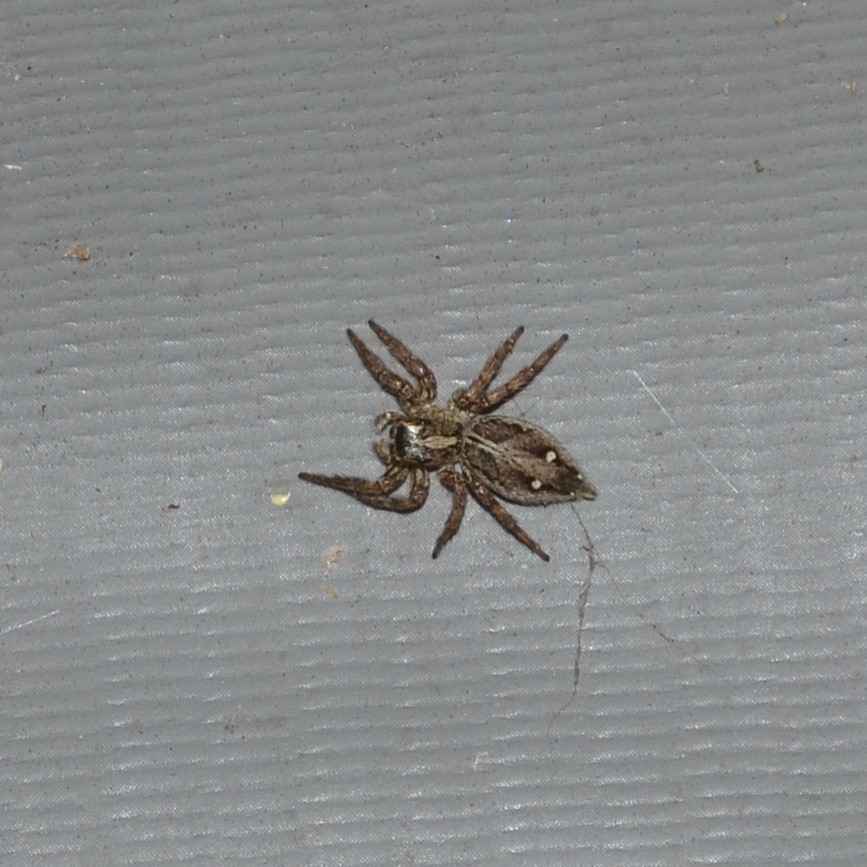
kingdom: Animalia
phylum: Arthropoda
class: Arachnida
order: Araneae
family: Salticidae
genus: Plexippus
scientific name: Plexippus paykulli
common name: Pantropical jumper
